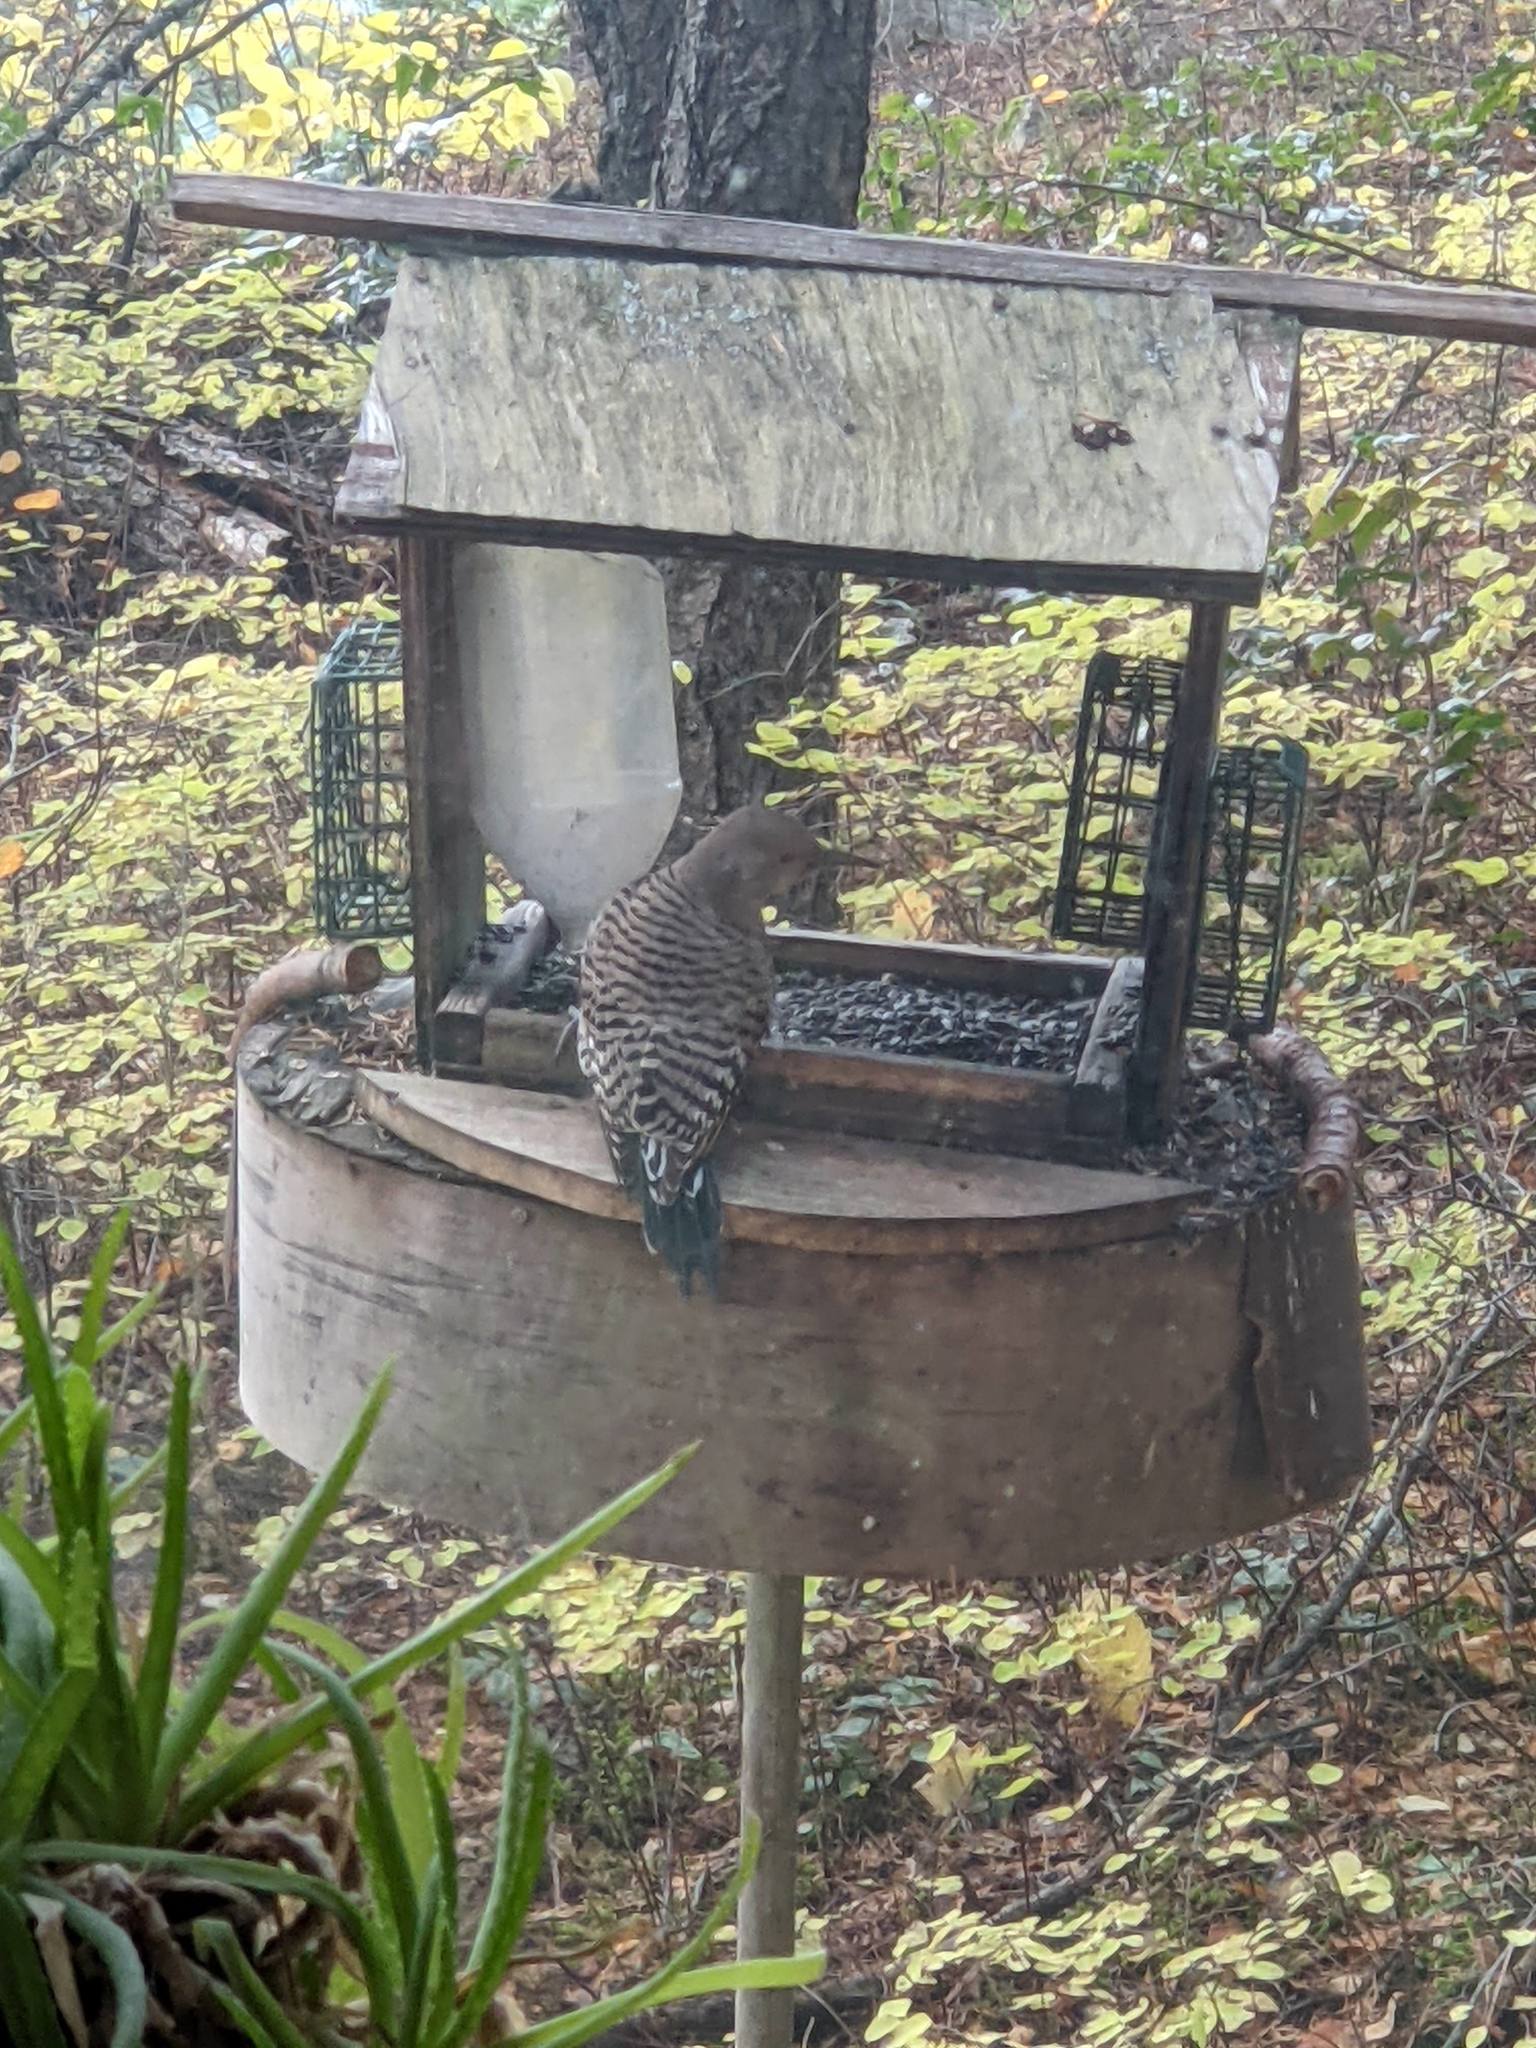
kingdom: Animalia
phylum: Chordata
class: Aves
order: Piciformes
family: Picidae
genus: Colaptes
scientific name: Colaptes auratus
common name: Northern flicker
